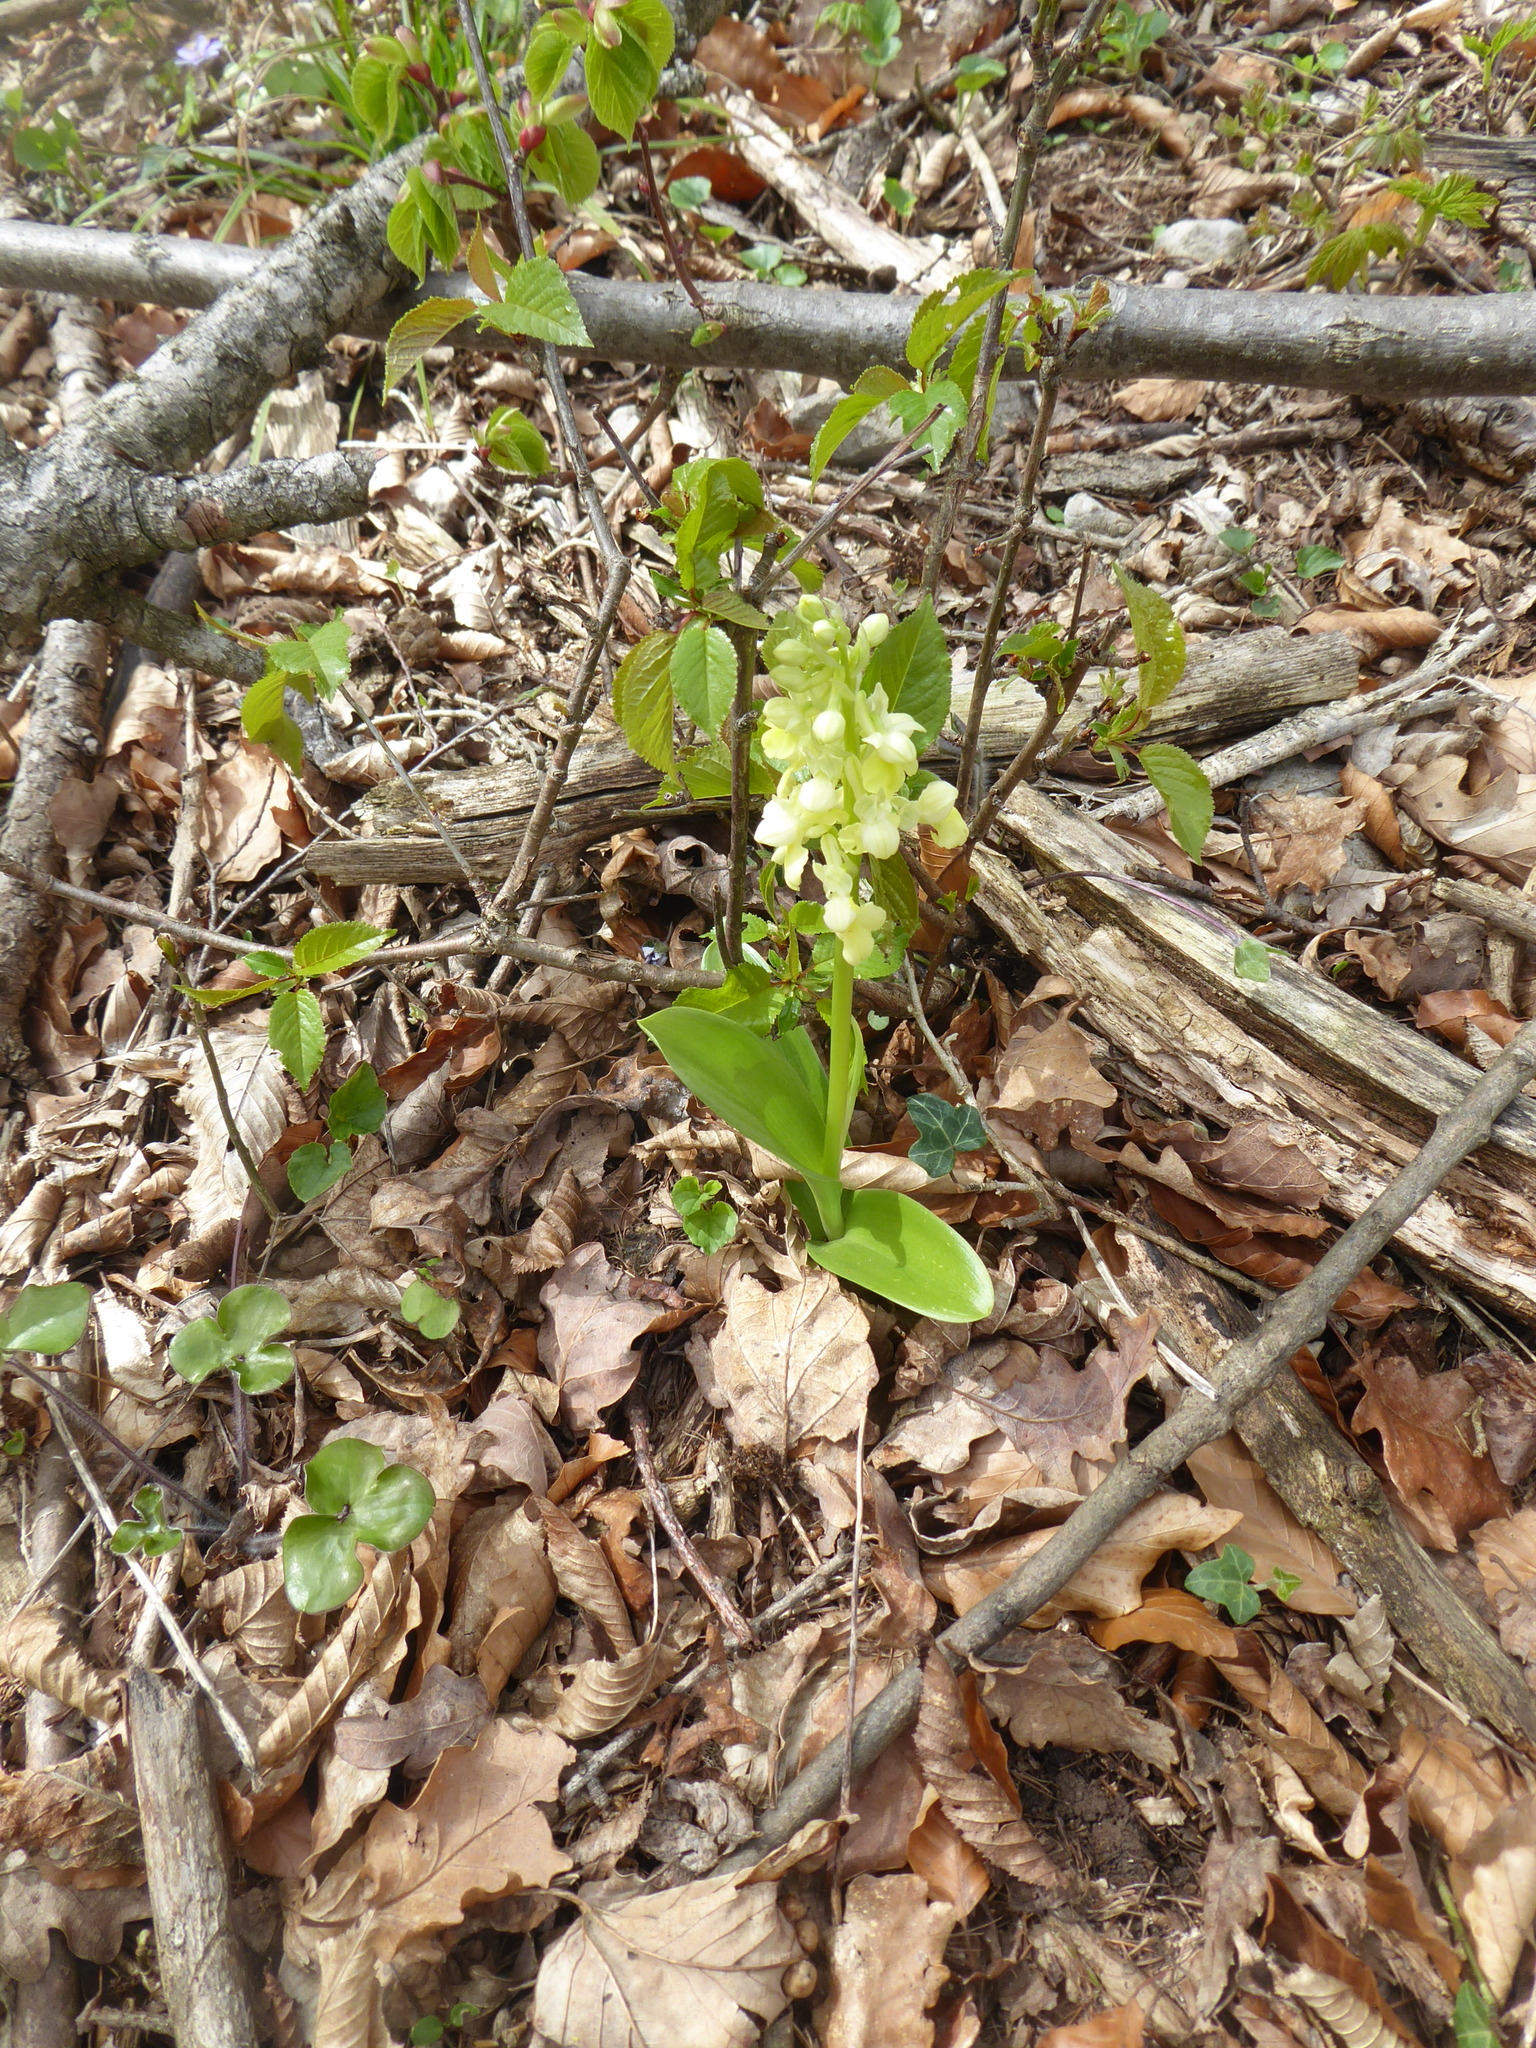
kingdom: Plantae
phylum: Tracheophyta
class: Liliopsida
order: Asparagales
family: Orchidaceae
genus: Orchis
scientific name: Orchis pallens
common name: Pale-flowered orchid
